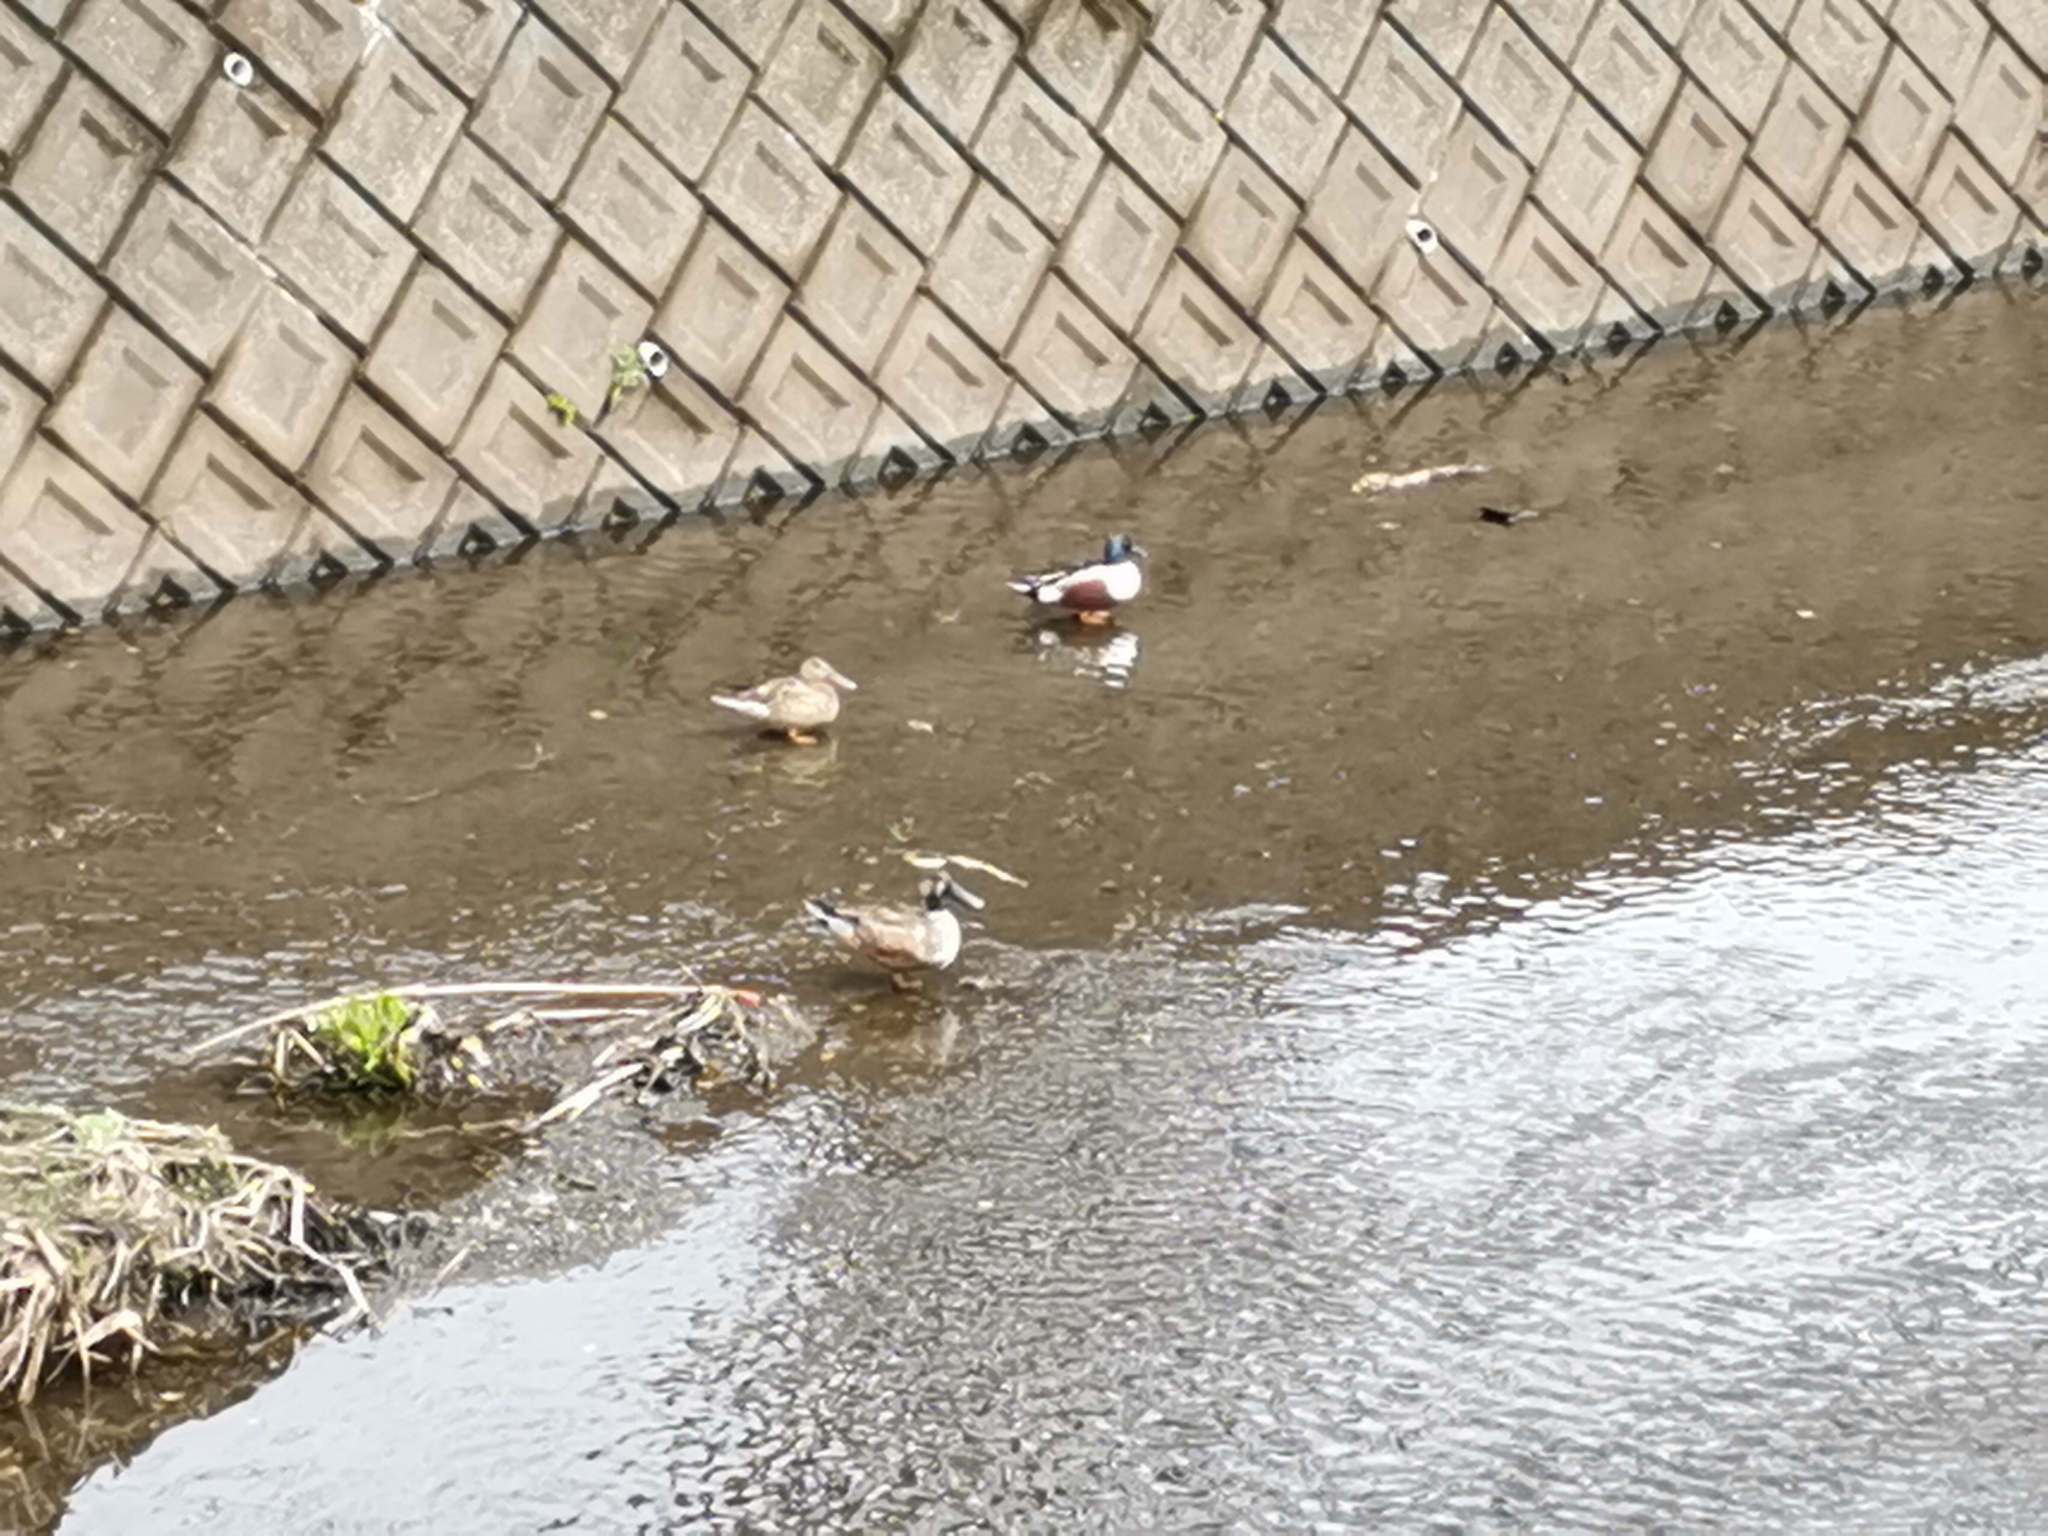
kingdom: Animalia
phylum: Chordata
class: Aves
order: Anseriformes
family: Anatidae
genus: Spatula
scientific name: Spatula clypeata
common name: Northern shoveler
